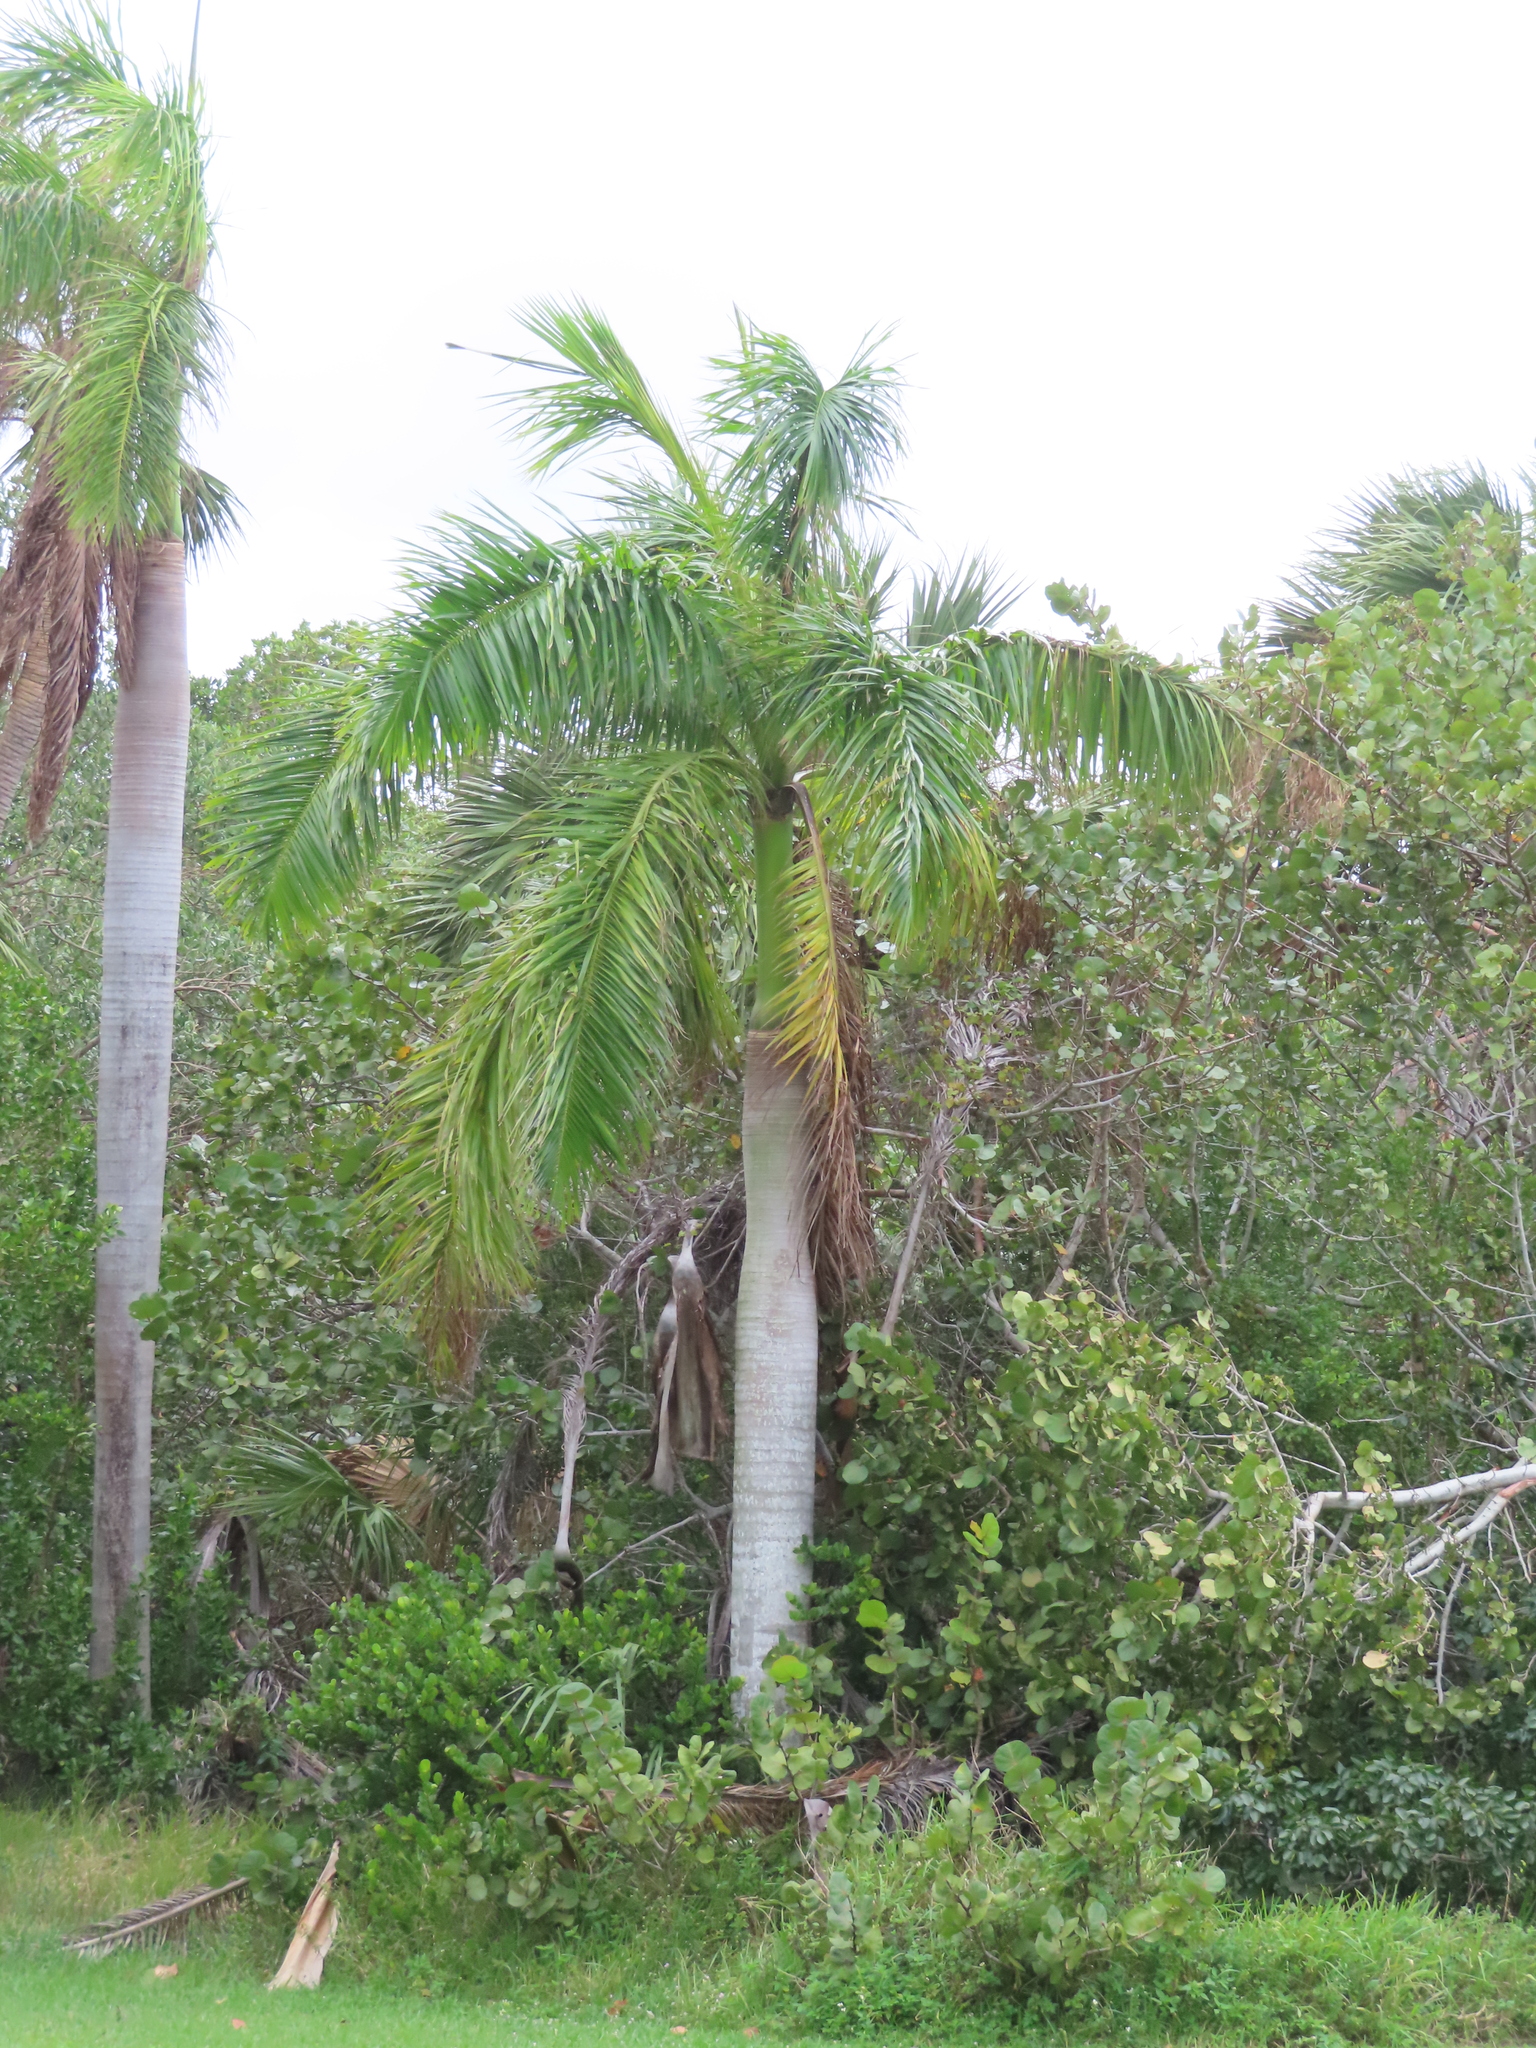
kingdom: Plantae
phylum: Tracheophyta
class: Liliopsida
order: Arecales
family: Arecaceae
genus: Roystonea
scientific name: Roystonea regia
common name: Florida royal palm
